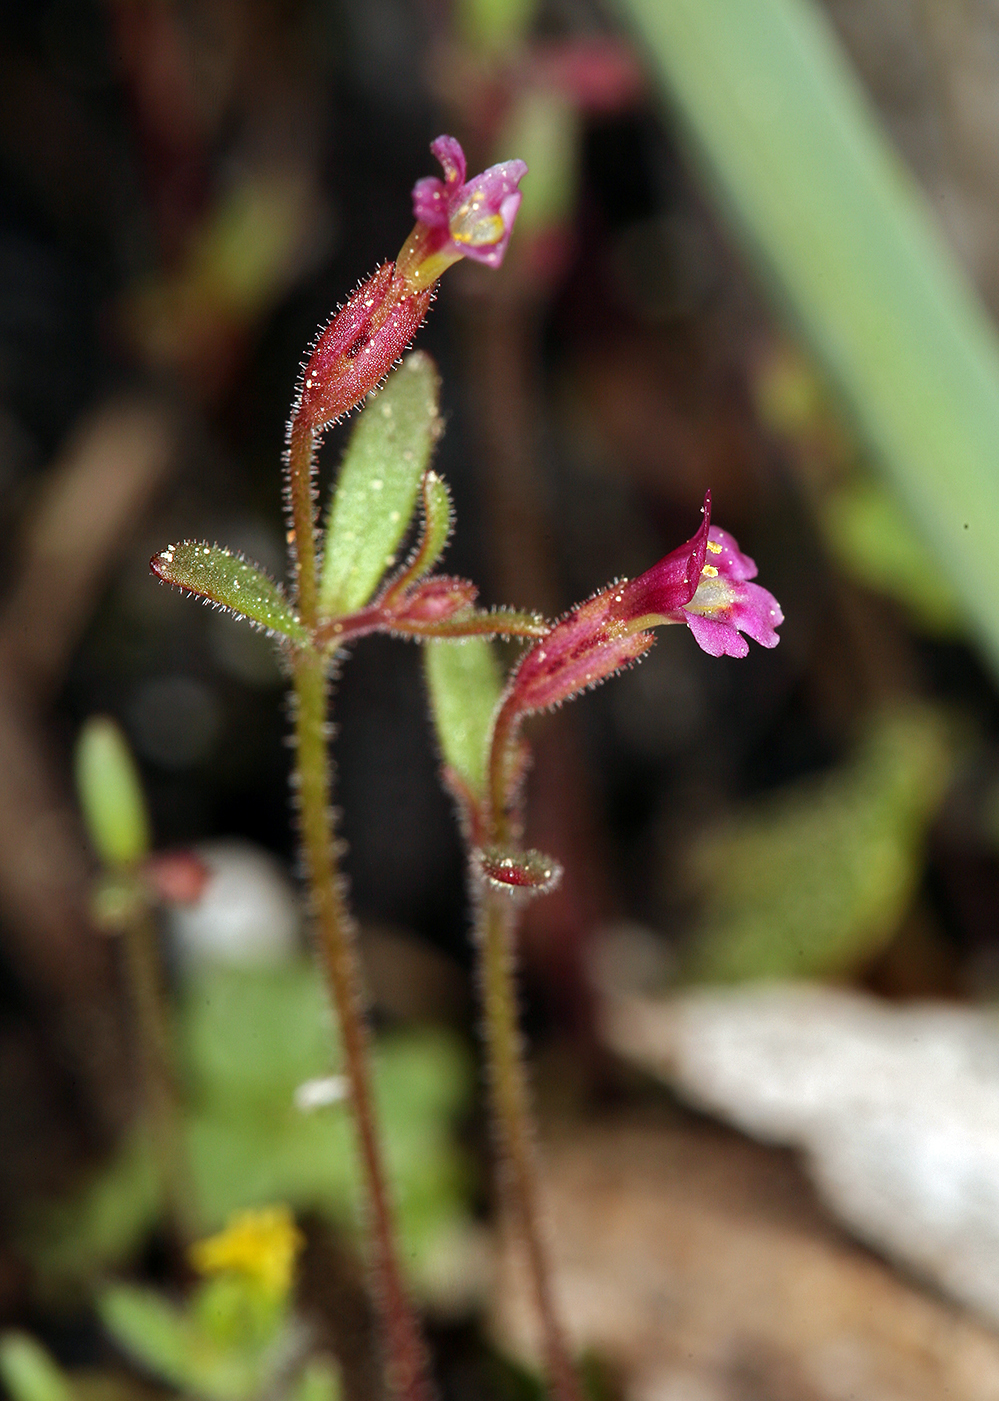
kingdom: Plantae
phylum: Tracheophyta
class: Magnoliopsida
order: Lamiales
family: Phrymaceae
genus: Erythranthe
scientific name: Erythranthe breweri
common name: Brewer's monkeyflower
